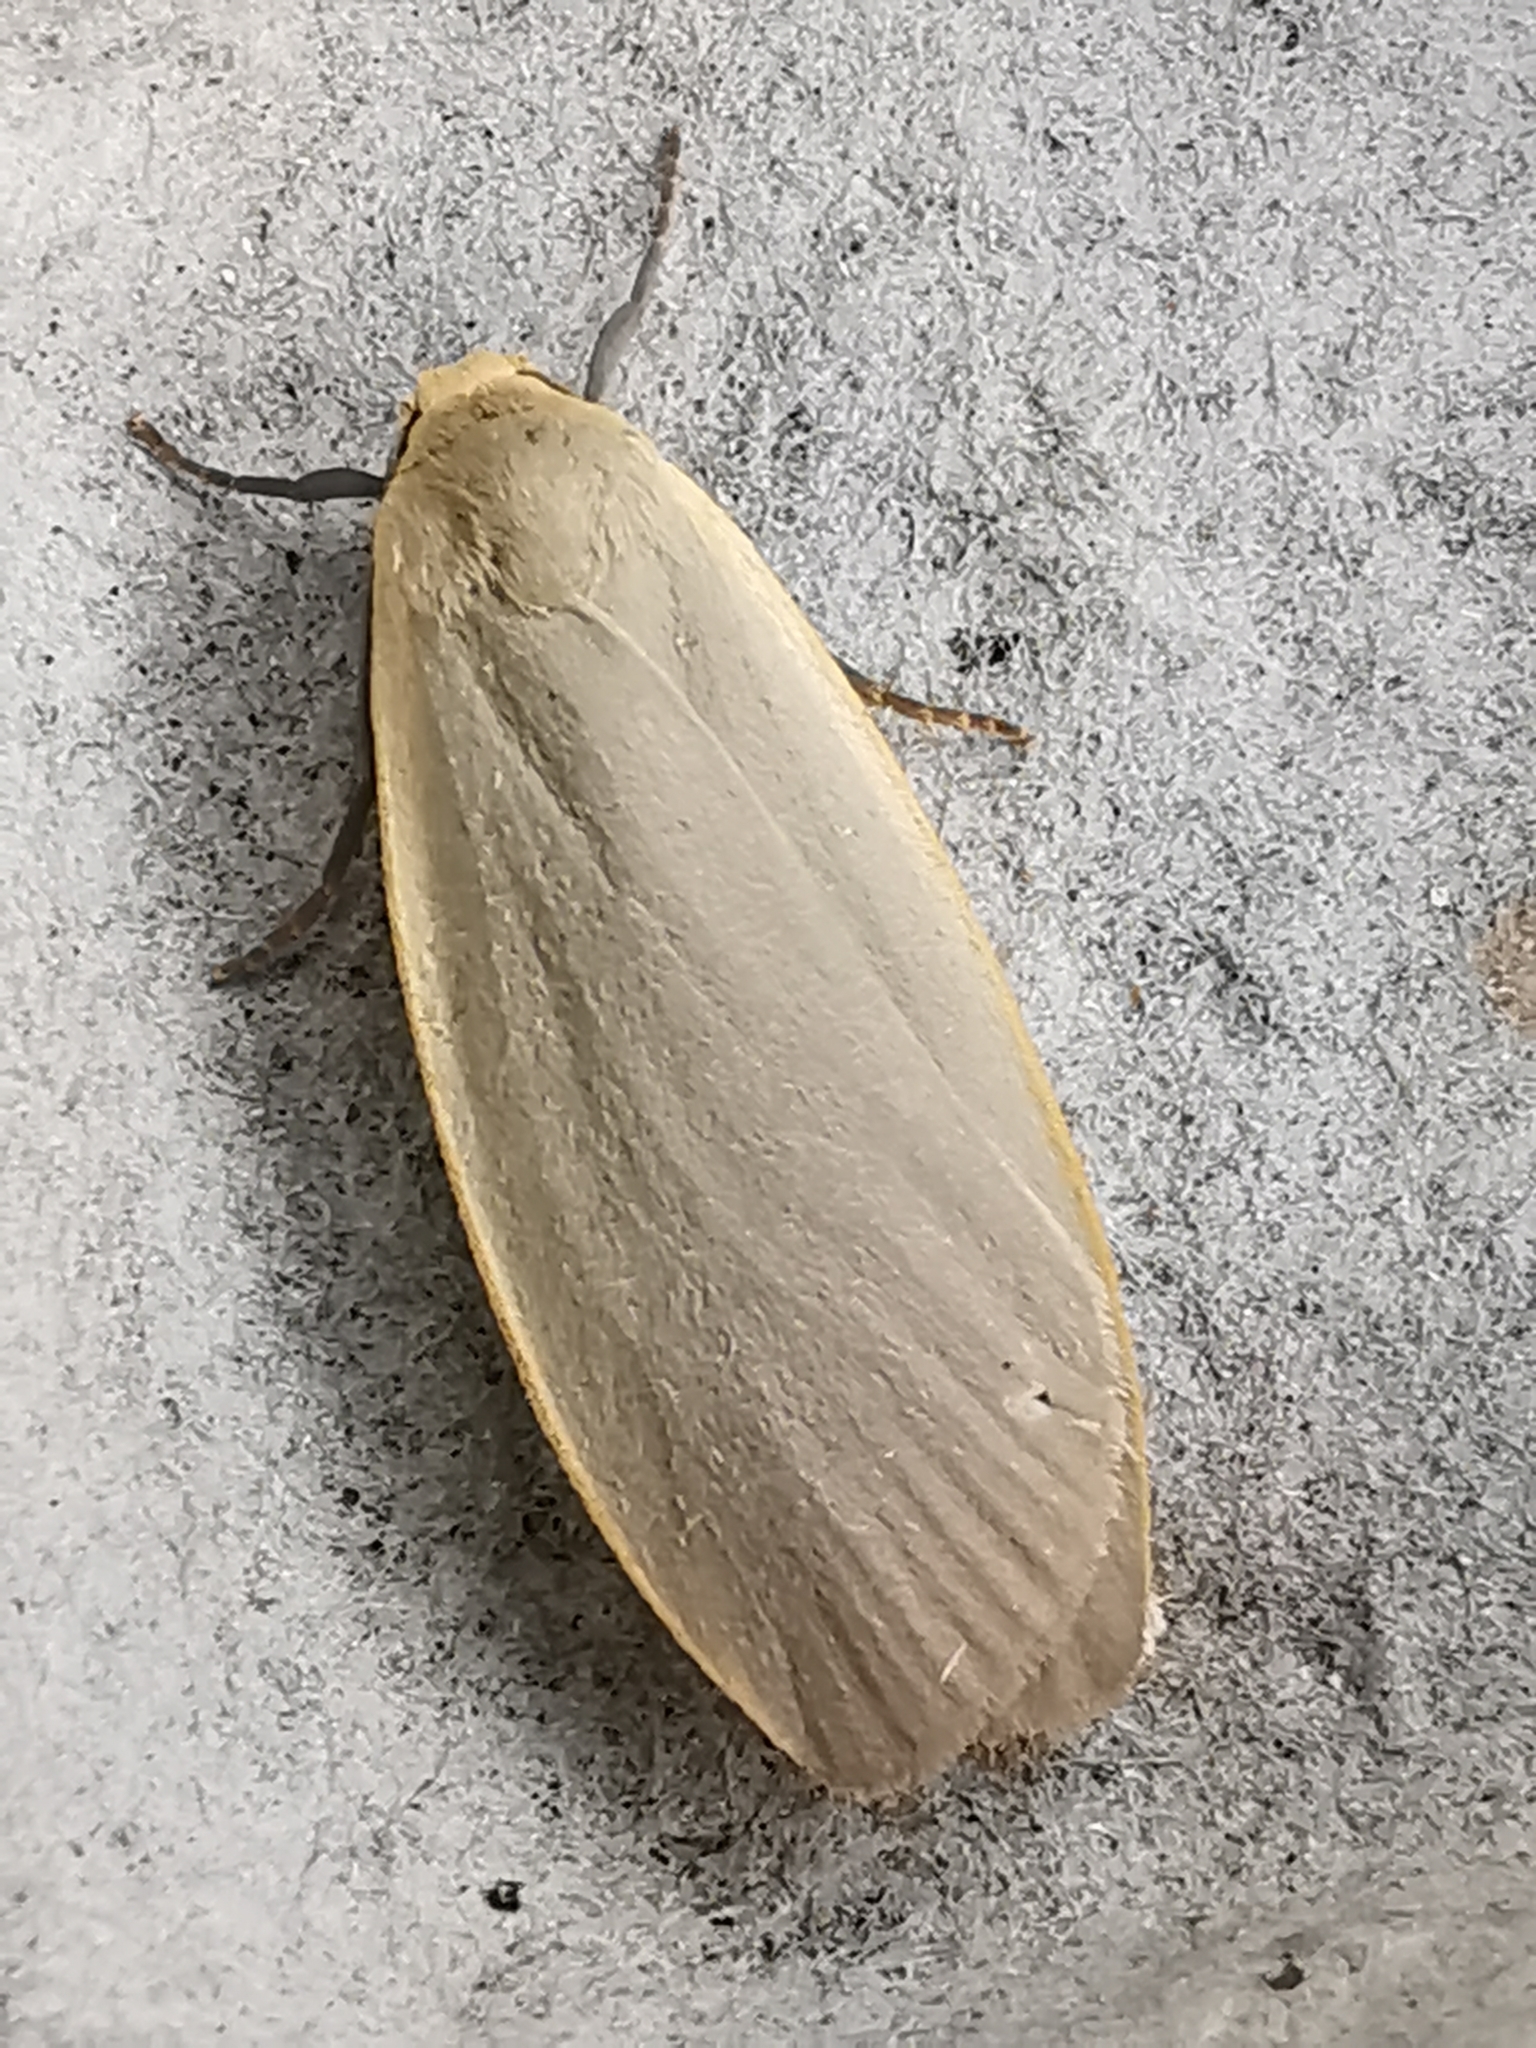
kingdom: Animalia
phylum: Arthropoda
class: Insecta
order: Lepidoptera
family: Erebidae
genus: Collita
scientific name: Collita griseola
